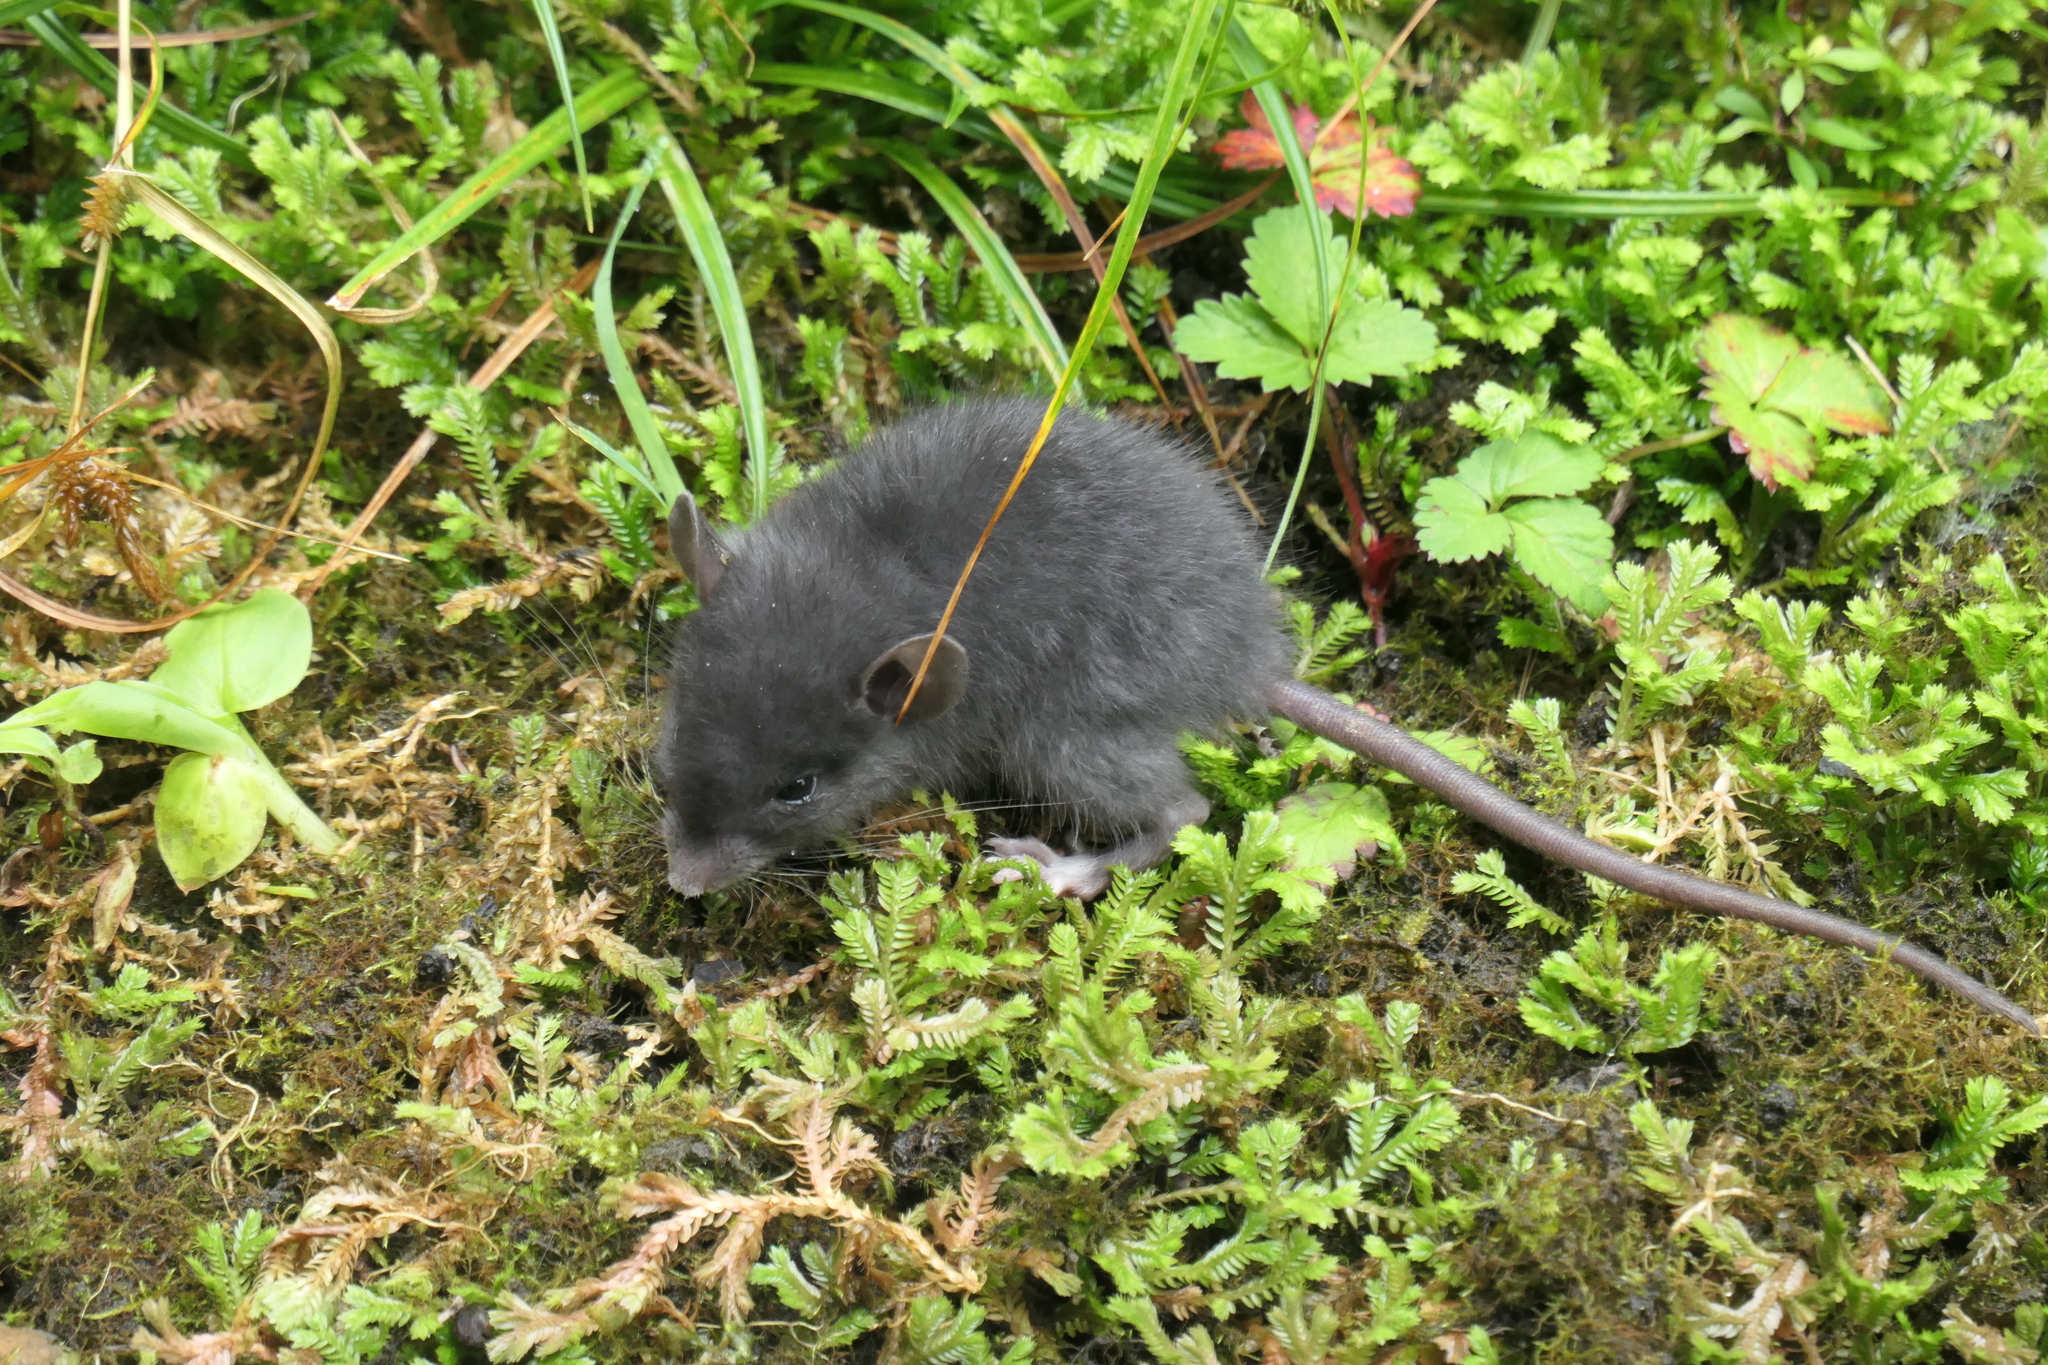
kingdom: Animalia
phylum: Chordata
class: Mammalia
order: Rodentia
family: Muridae
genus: Rattus
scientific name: Rattus rattus
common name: Black rat
